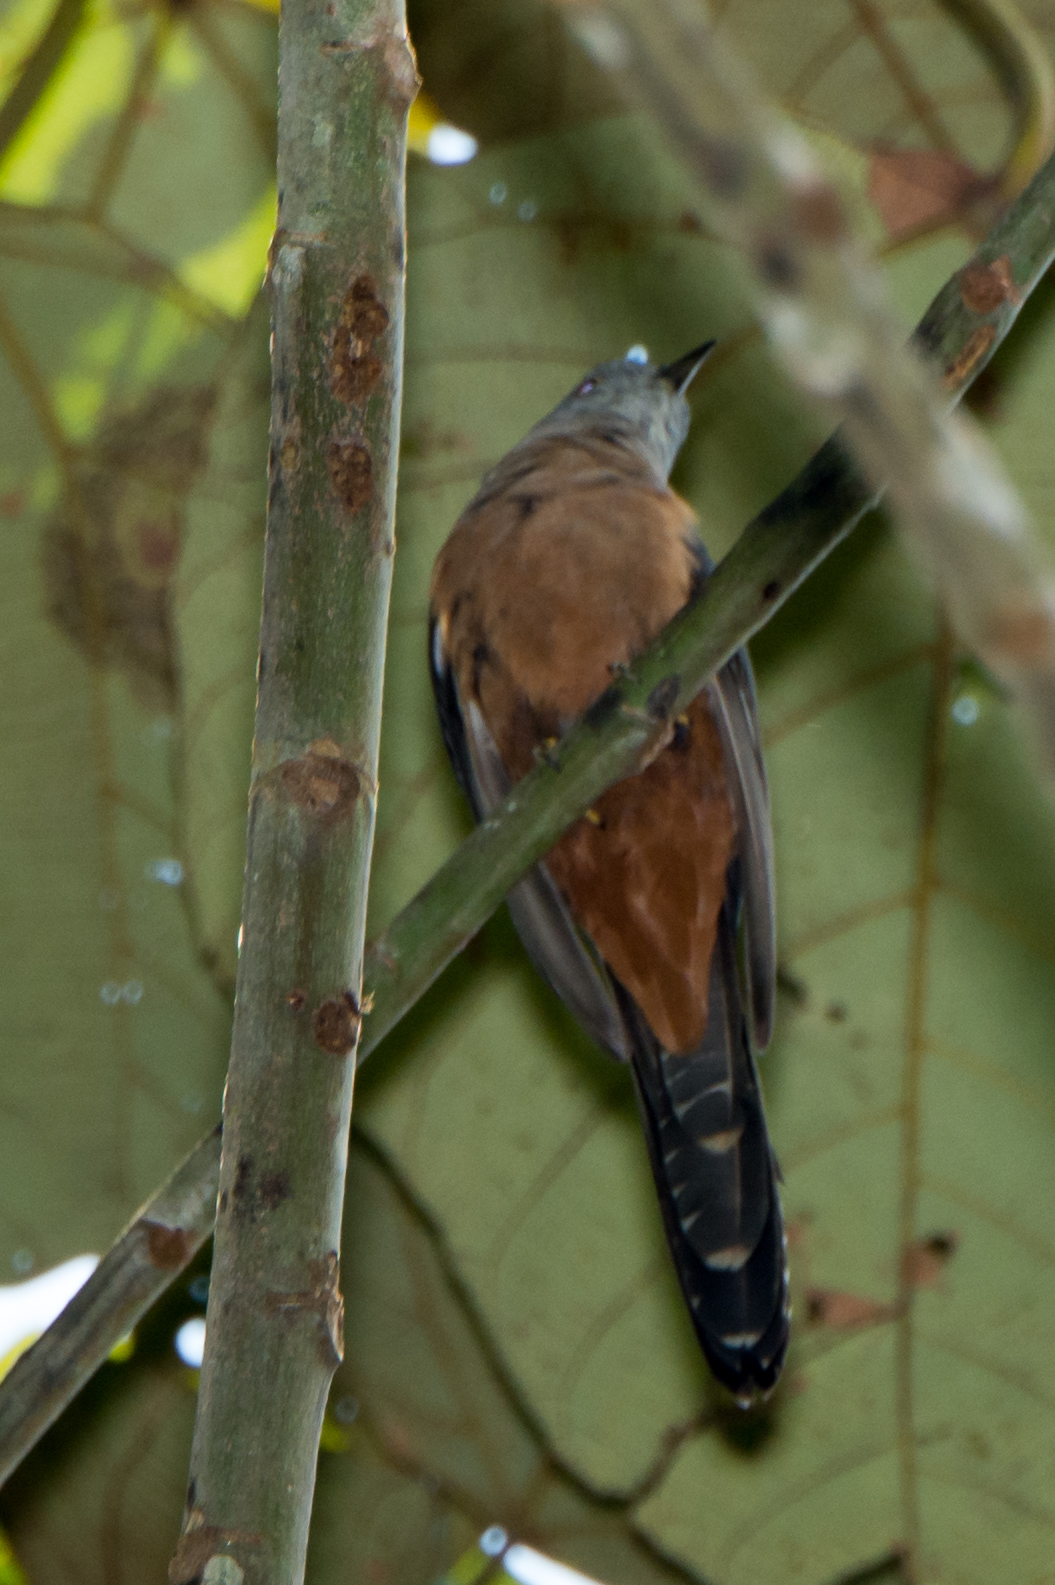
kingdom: Animalia
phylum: Chordata
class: Aves
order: Cuculiformes
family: Cuculidae
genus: Cacomantis
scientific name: Cacomantis variolosus
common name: Brush cuckoo
